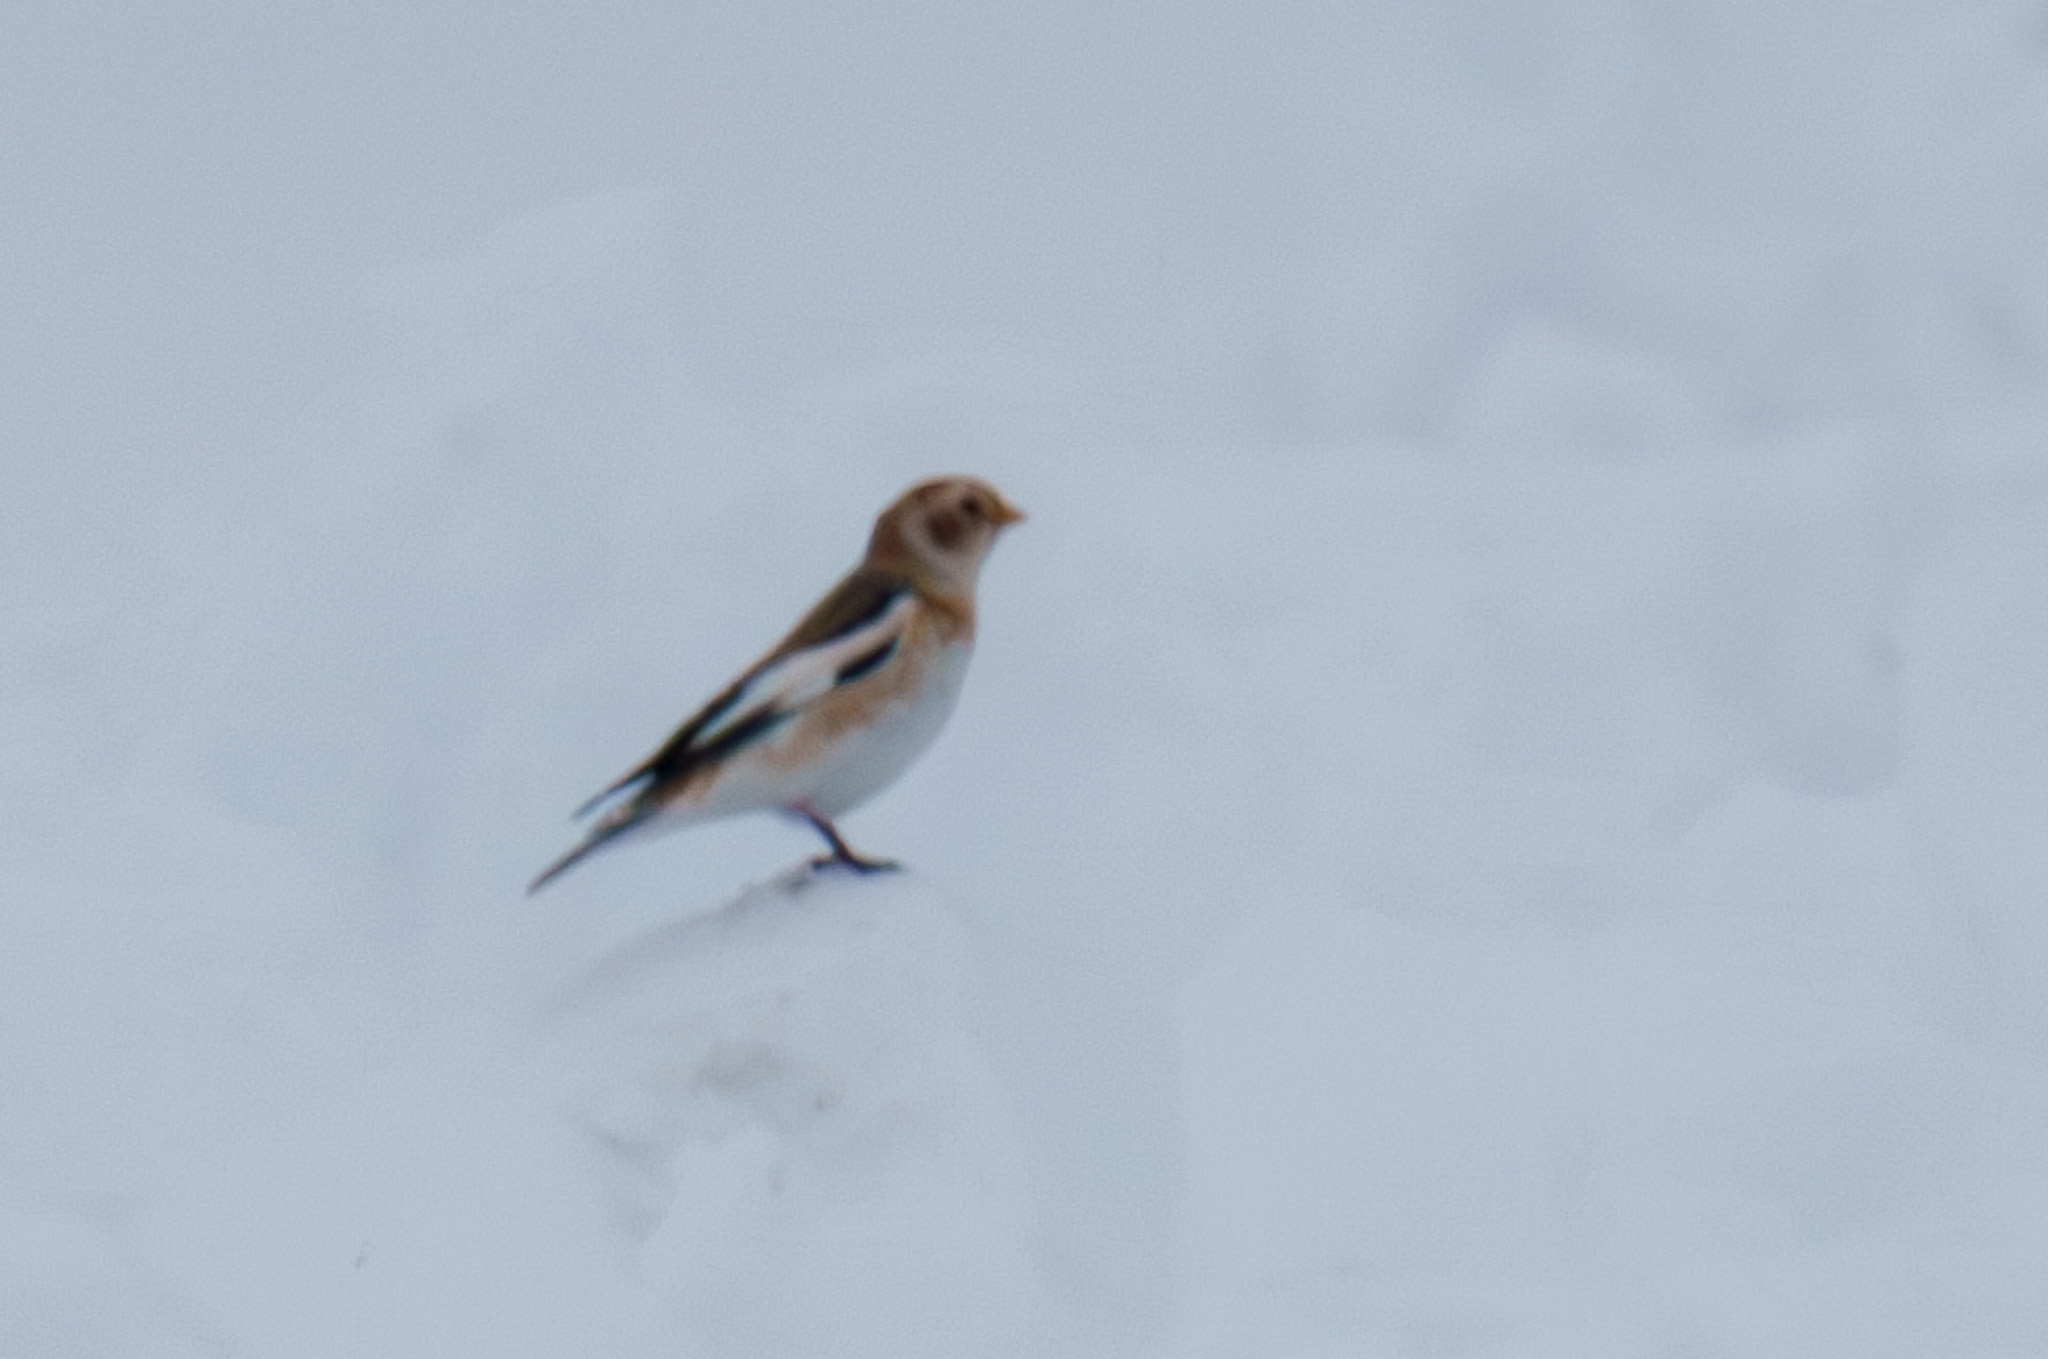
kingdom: Animalia
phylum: Chordata
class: Aves
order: Passeriformes
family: Calcariidae
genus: Plectrophenax
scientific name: Plectrophenax nivalis
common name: Snow bunting
